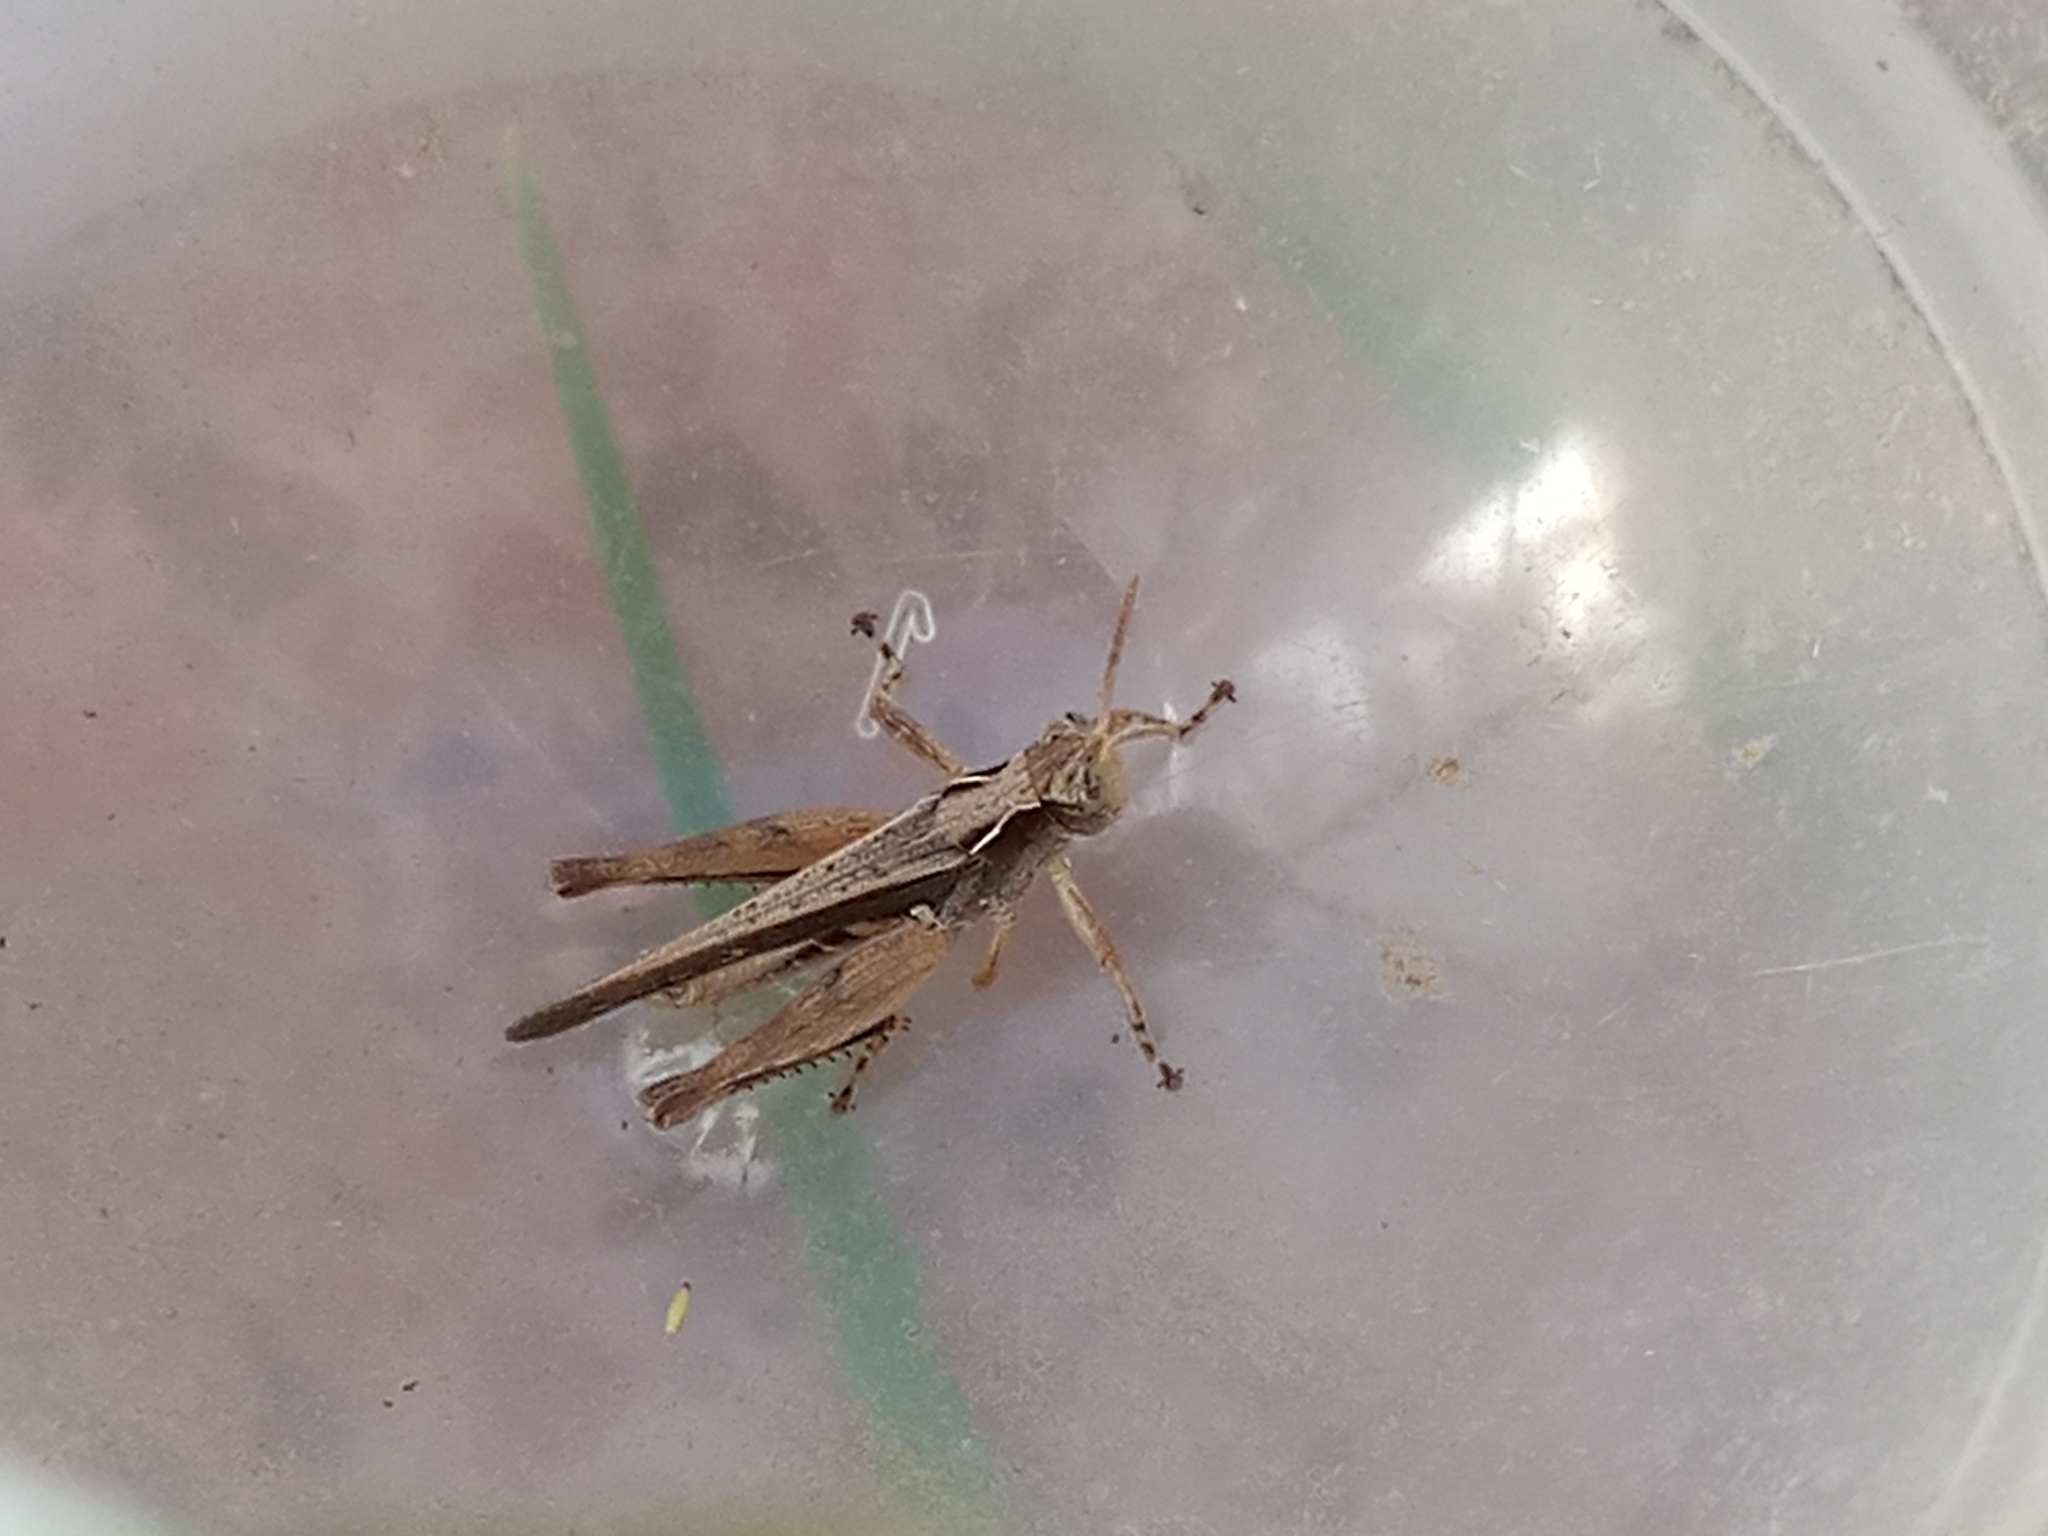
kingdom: Animalia
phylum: Arthropoda
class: Insecta
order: Orthoptera
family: Acrididae
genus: Orphulella
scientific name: Orphulella punctata
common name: Slant-faced grasshopper
